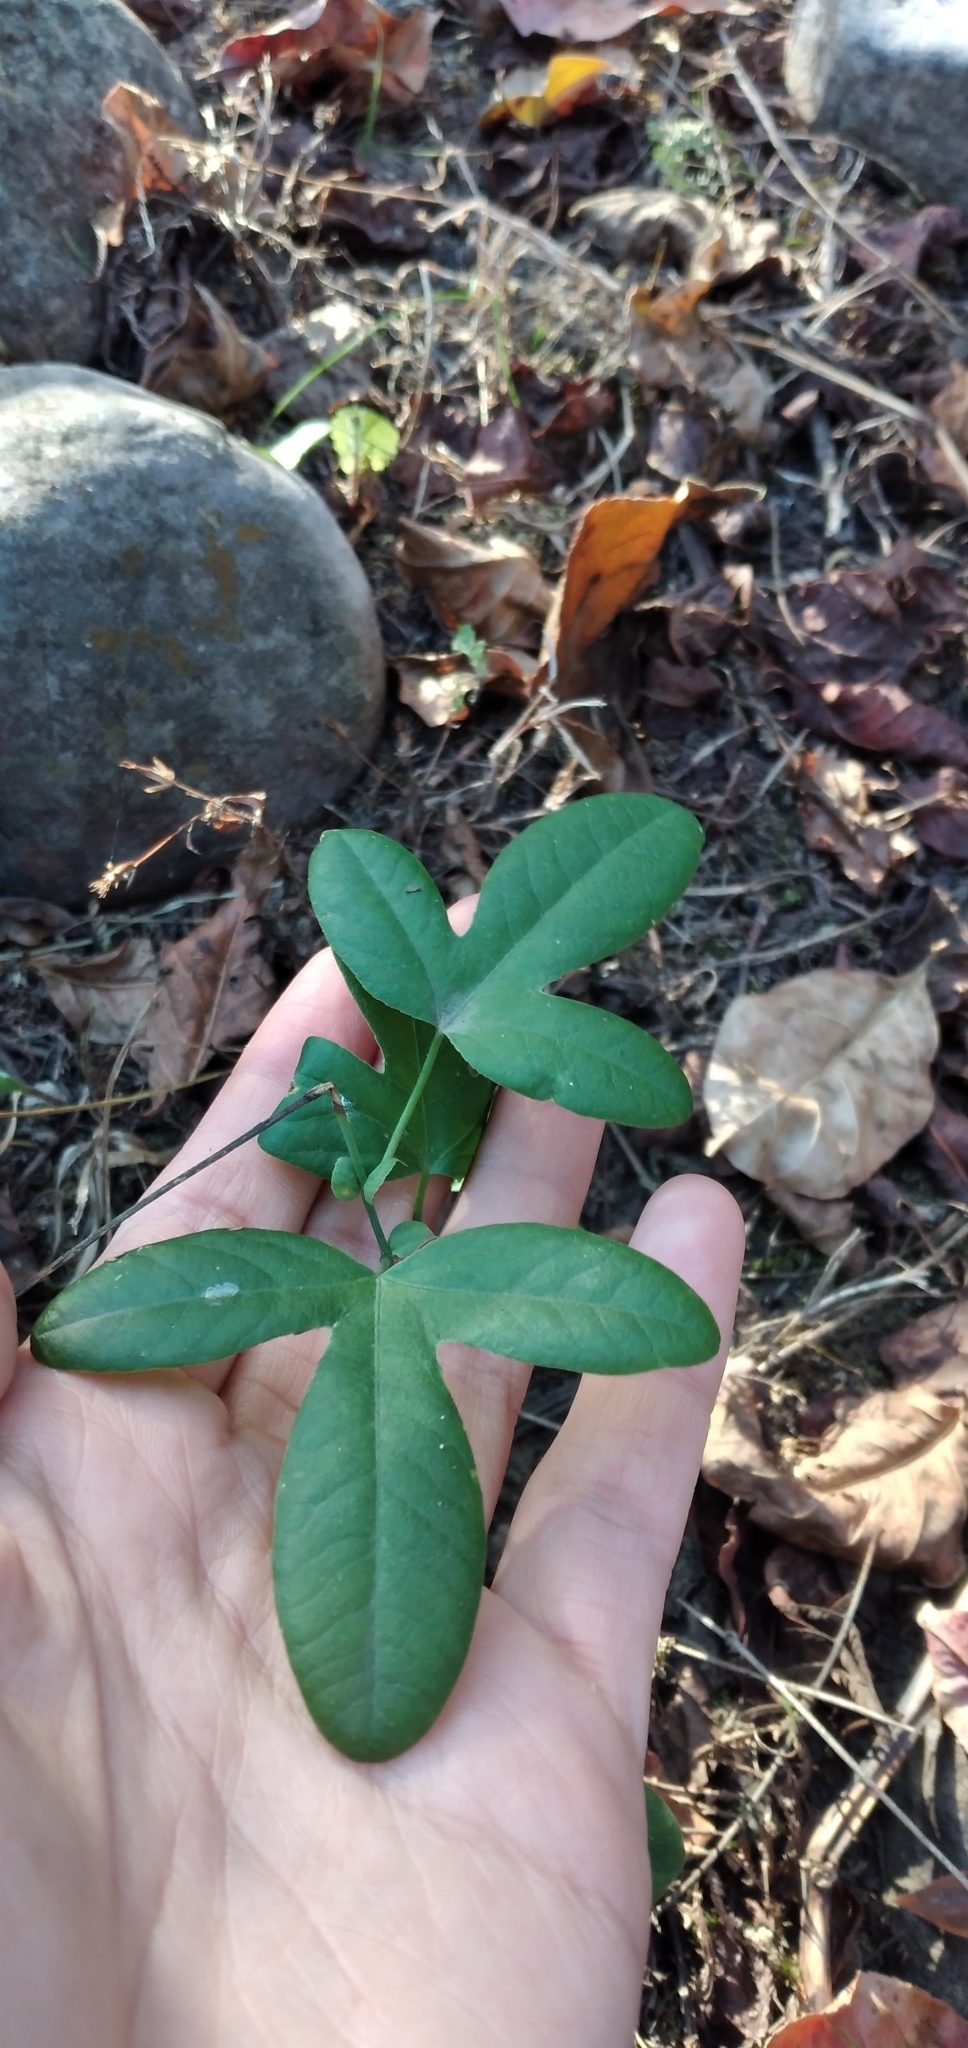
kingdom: Plantae
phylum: Tracheophyta
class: Magnoliopsida
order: Malpighiales
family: Passifloraceae
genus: Passiflora
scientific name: Passiflora tucumanensis
